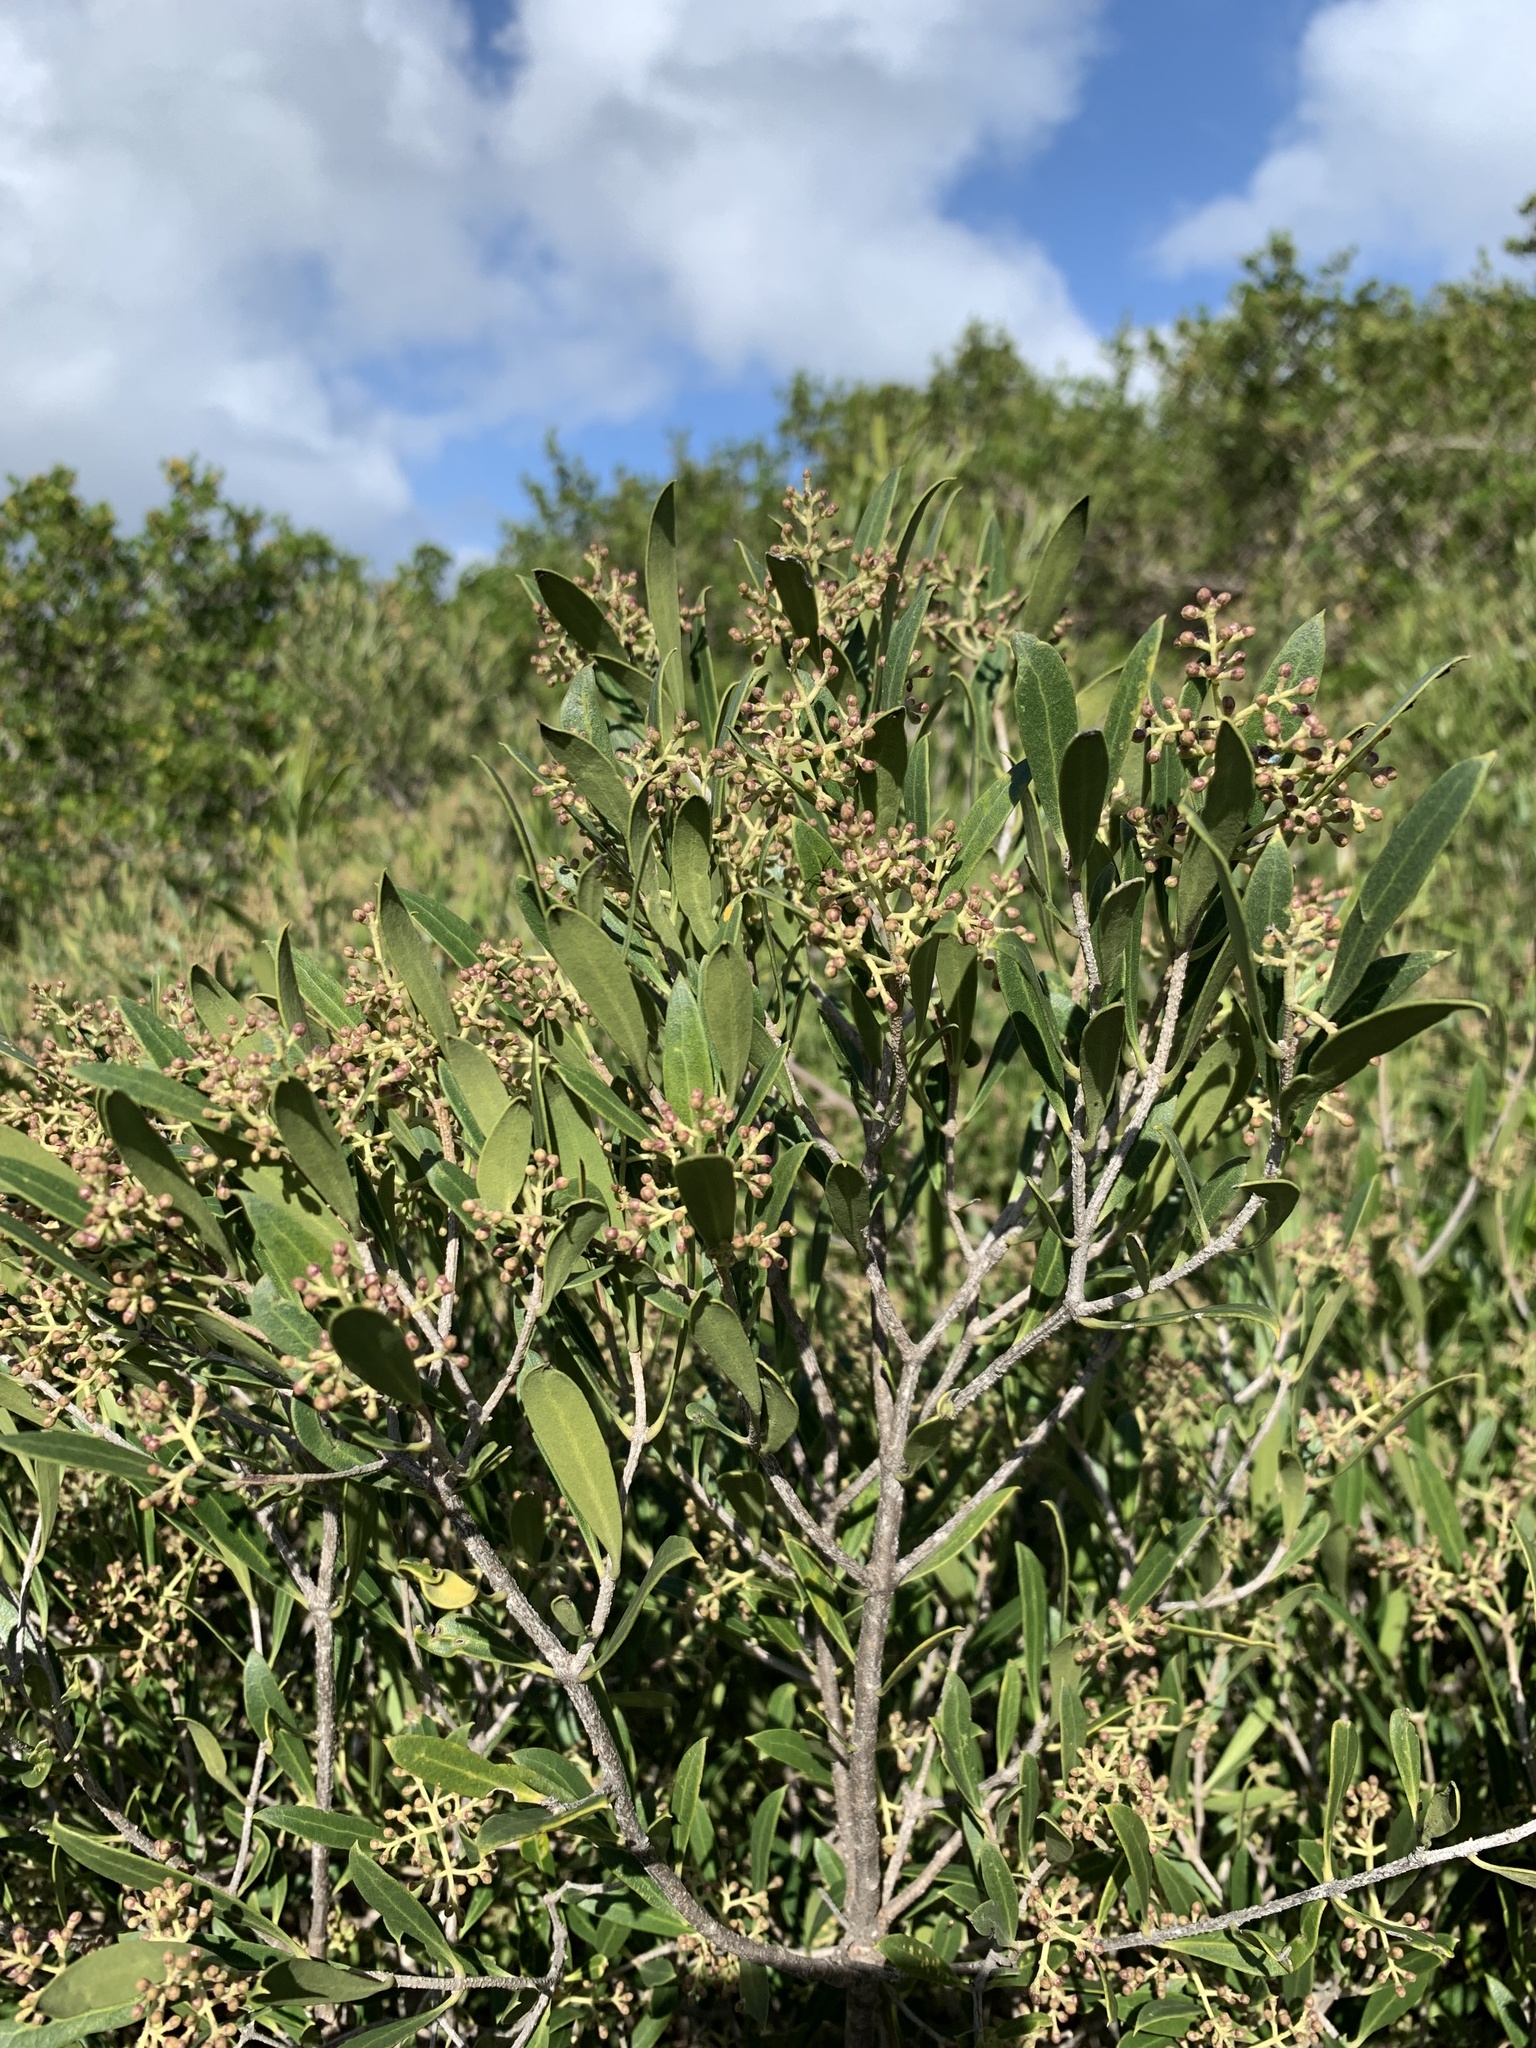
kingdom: Plantae
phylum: Tracheophyta
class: Magnoliopsida
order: Lamiales
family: Oleaceae
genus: Olea
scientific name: Olea exasperata
